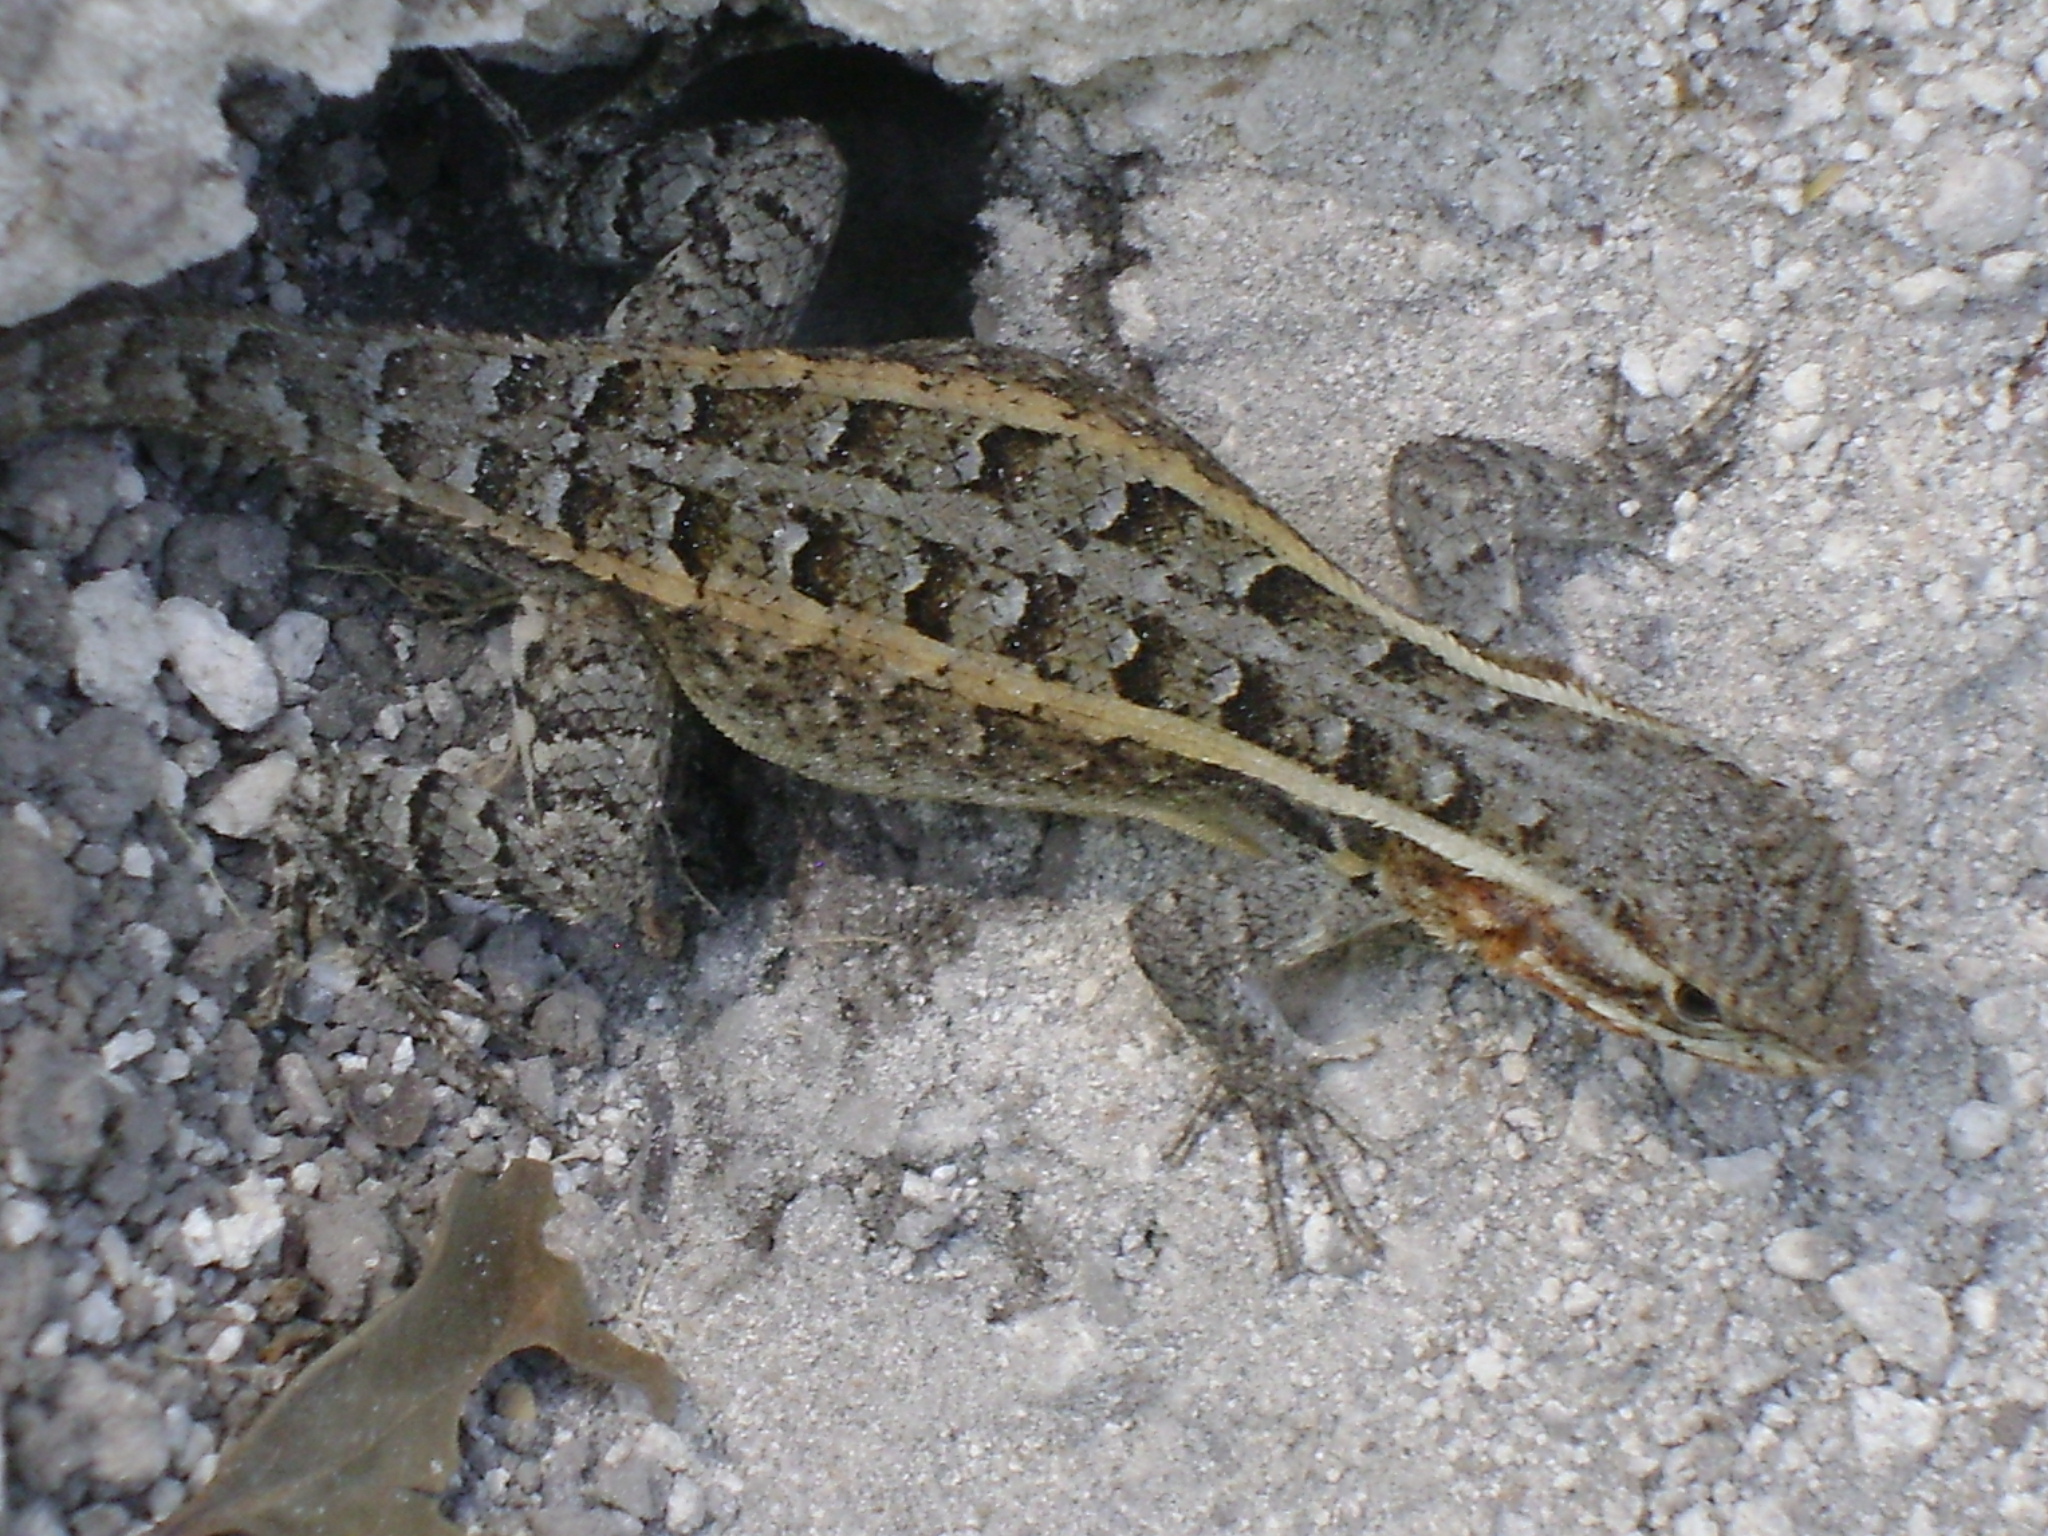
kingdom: Animalia
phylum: Chordata
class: Squamata
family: Phrynosomatidae
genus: Sceloporus
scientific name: Sceloporus variabilis
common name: Rosebelly lizard
